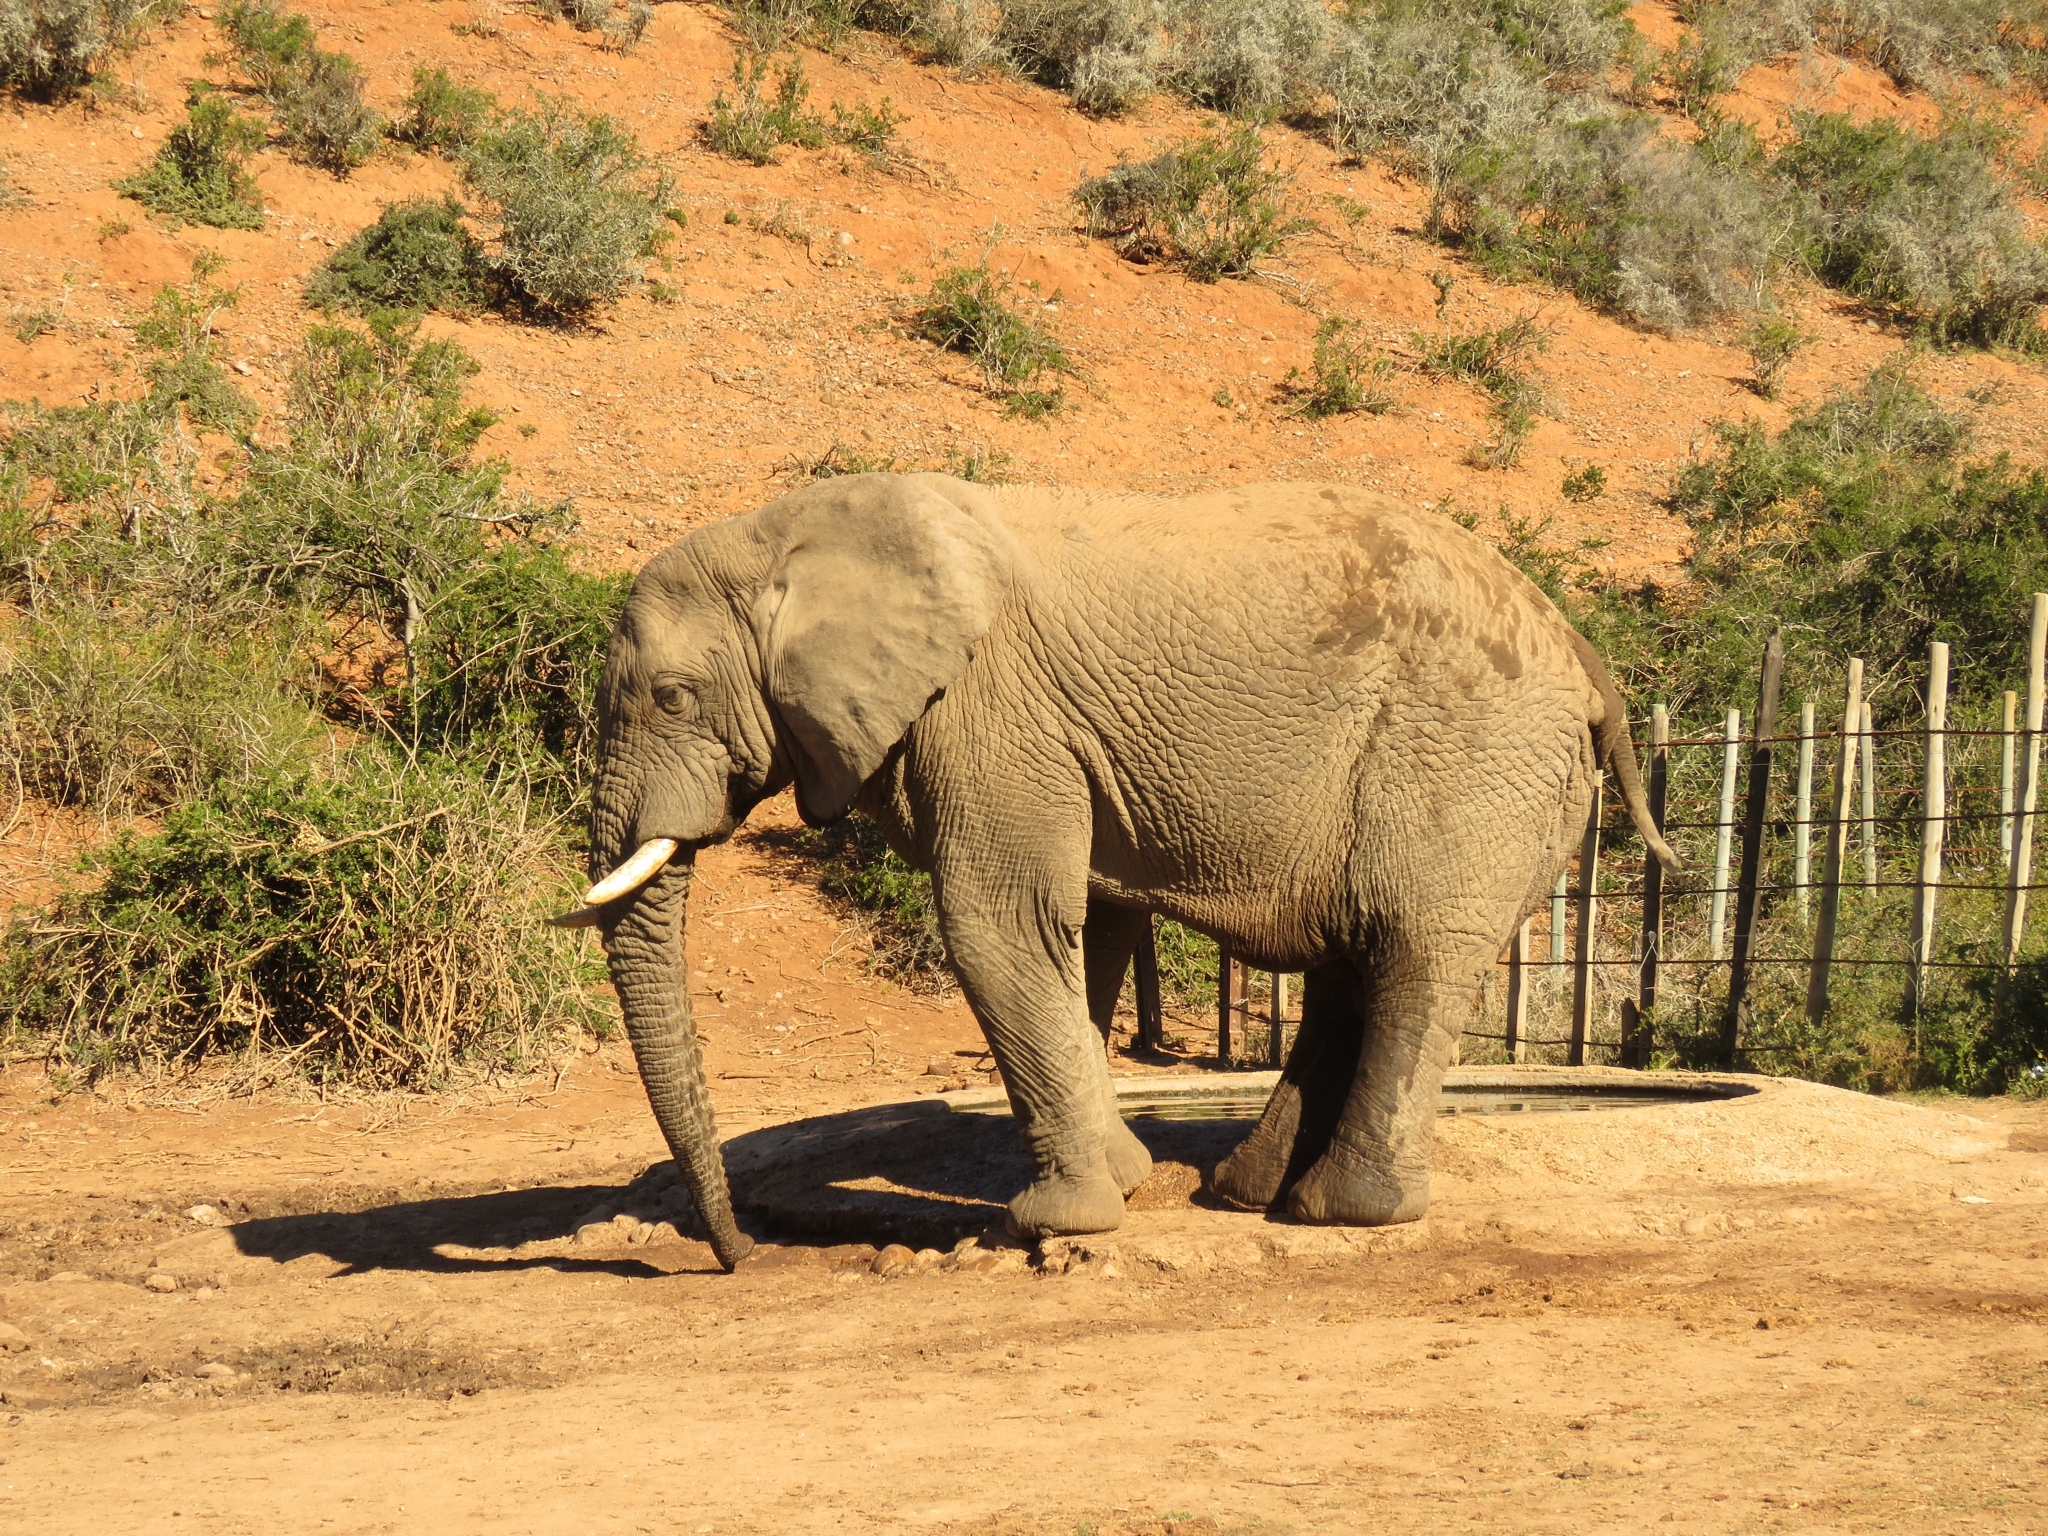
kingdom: Animalia
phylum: Chordata
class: Mammalia
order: Proboscidea
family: Elephantidae
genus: Loxodonta
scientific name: Loxodonta africana
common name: African elephant
